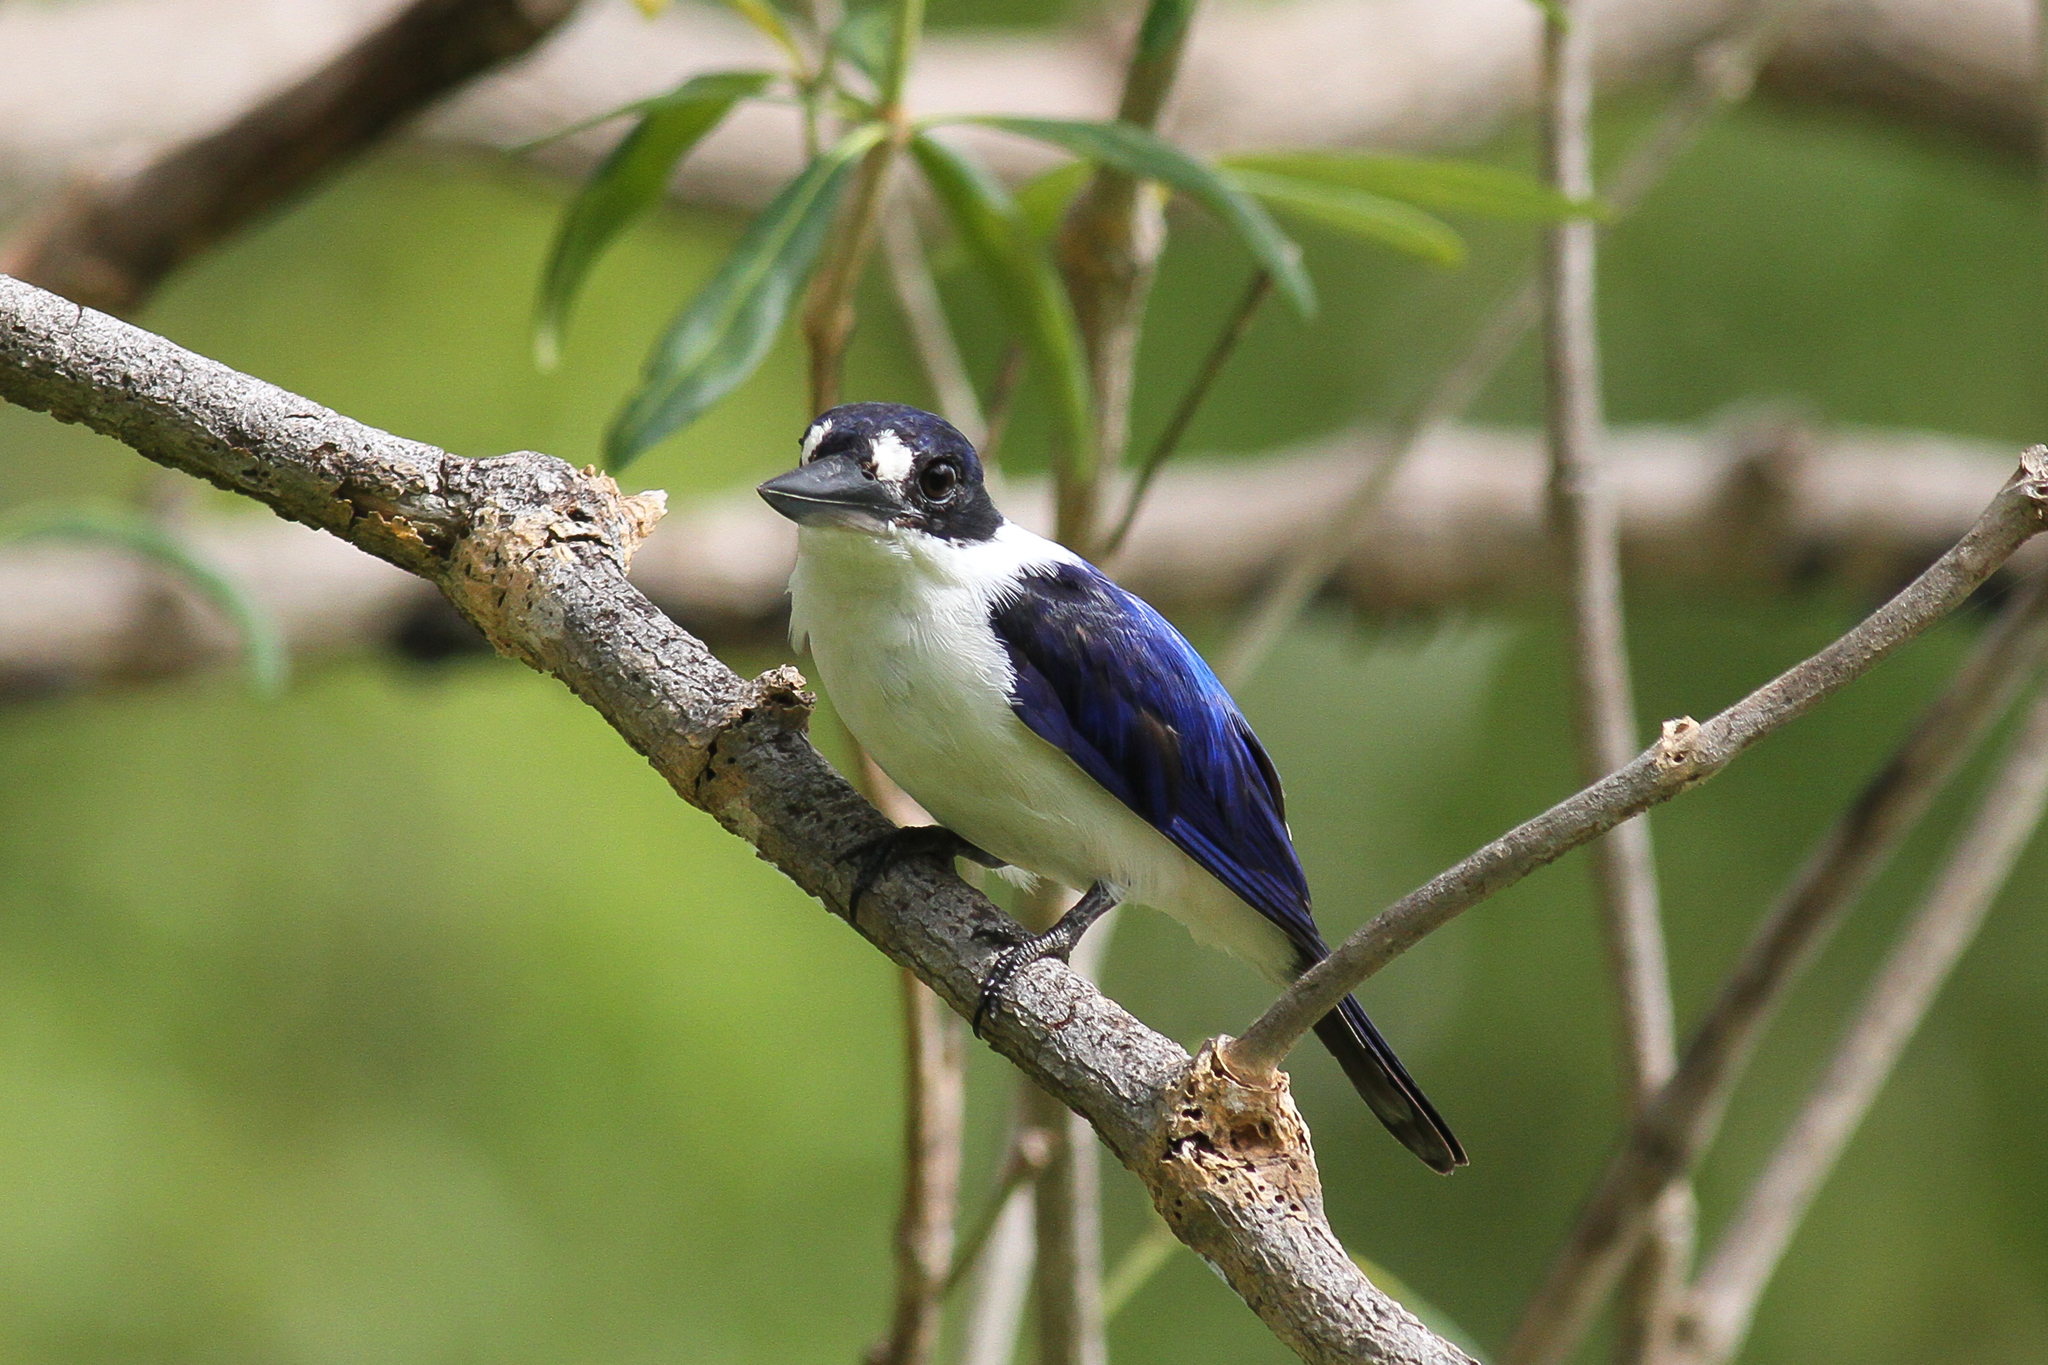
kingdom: Animalia
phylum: Chordata
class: Aves
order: Coraciiformes
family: Alcedinidae
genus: Todiramphus
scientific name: Todiramphus macleayii
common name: Forest kingfisher
